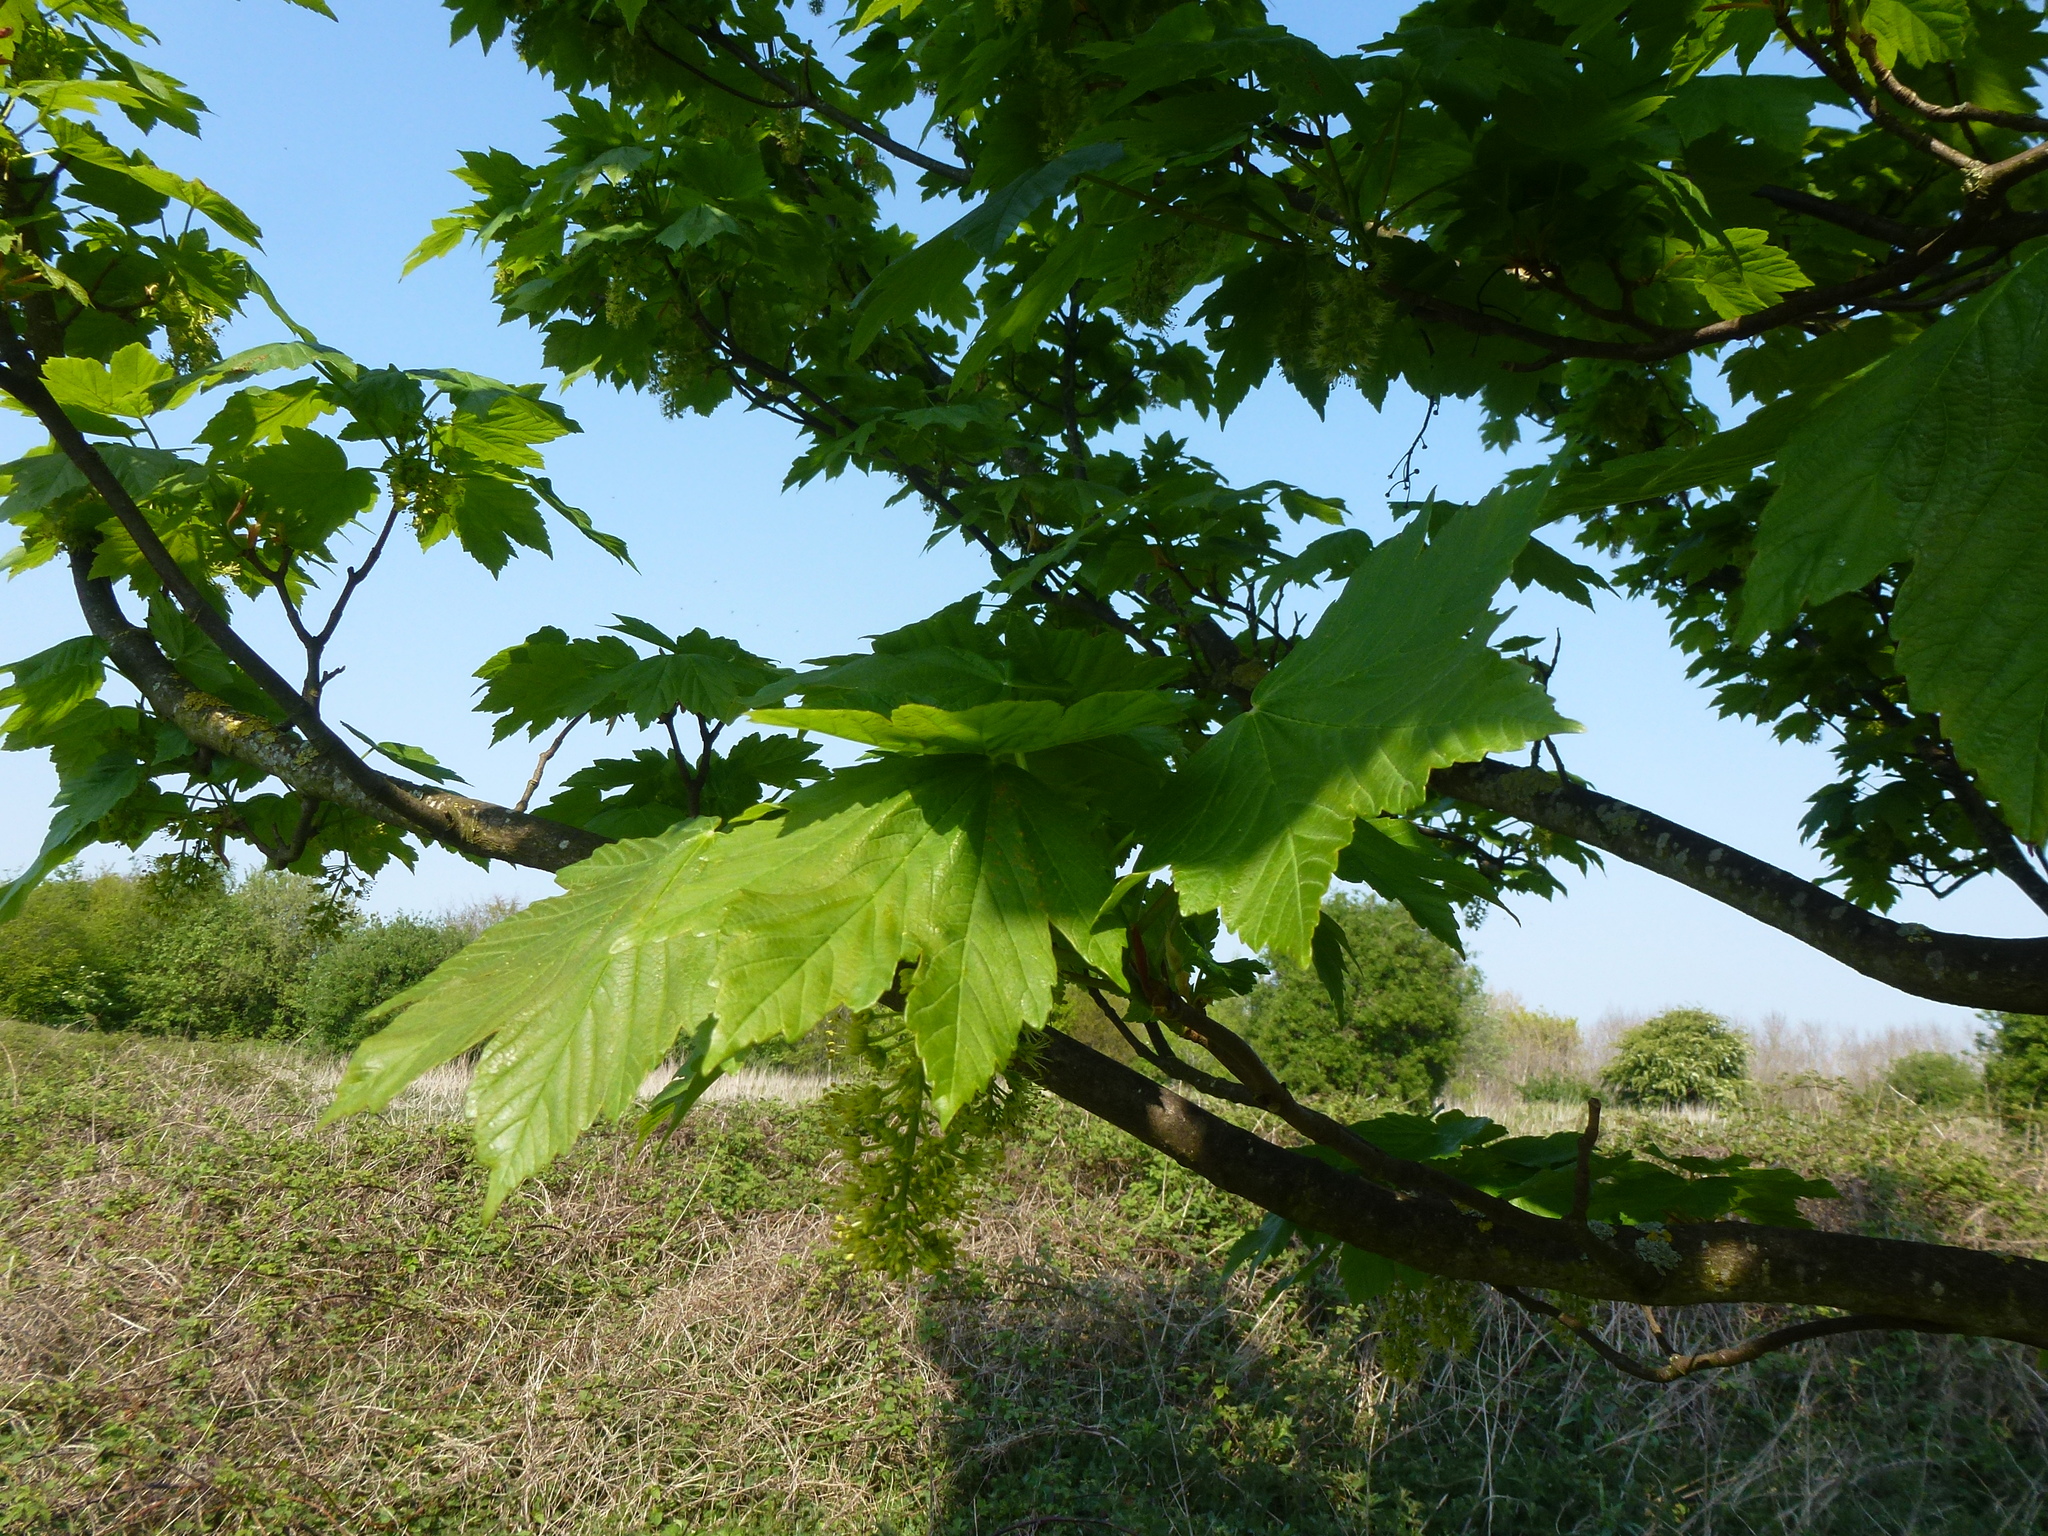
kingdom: Plantae
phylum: Tracheophyta
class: Magnoliopsida
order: Sapindales
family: Sapindaceae
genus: Acer
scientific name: Acer pseudoplatanus
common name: Sycamore
